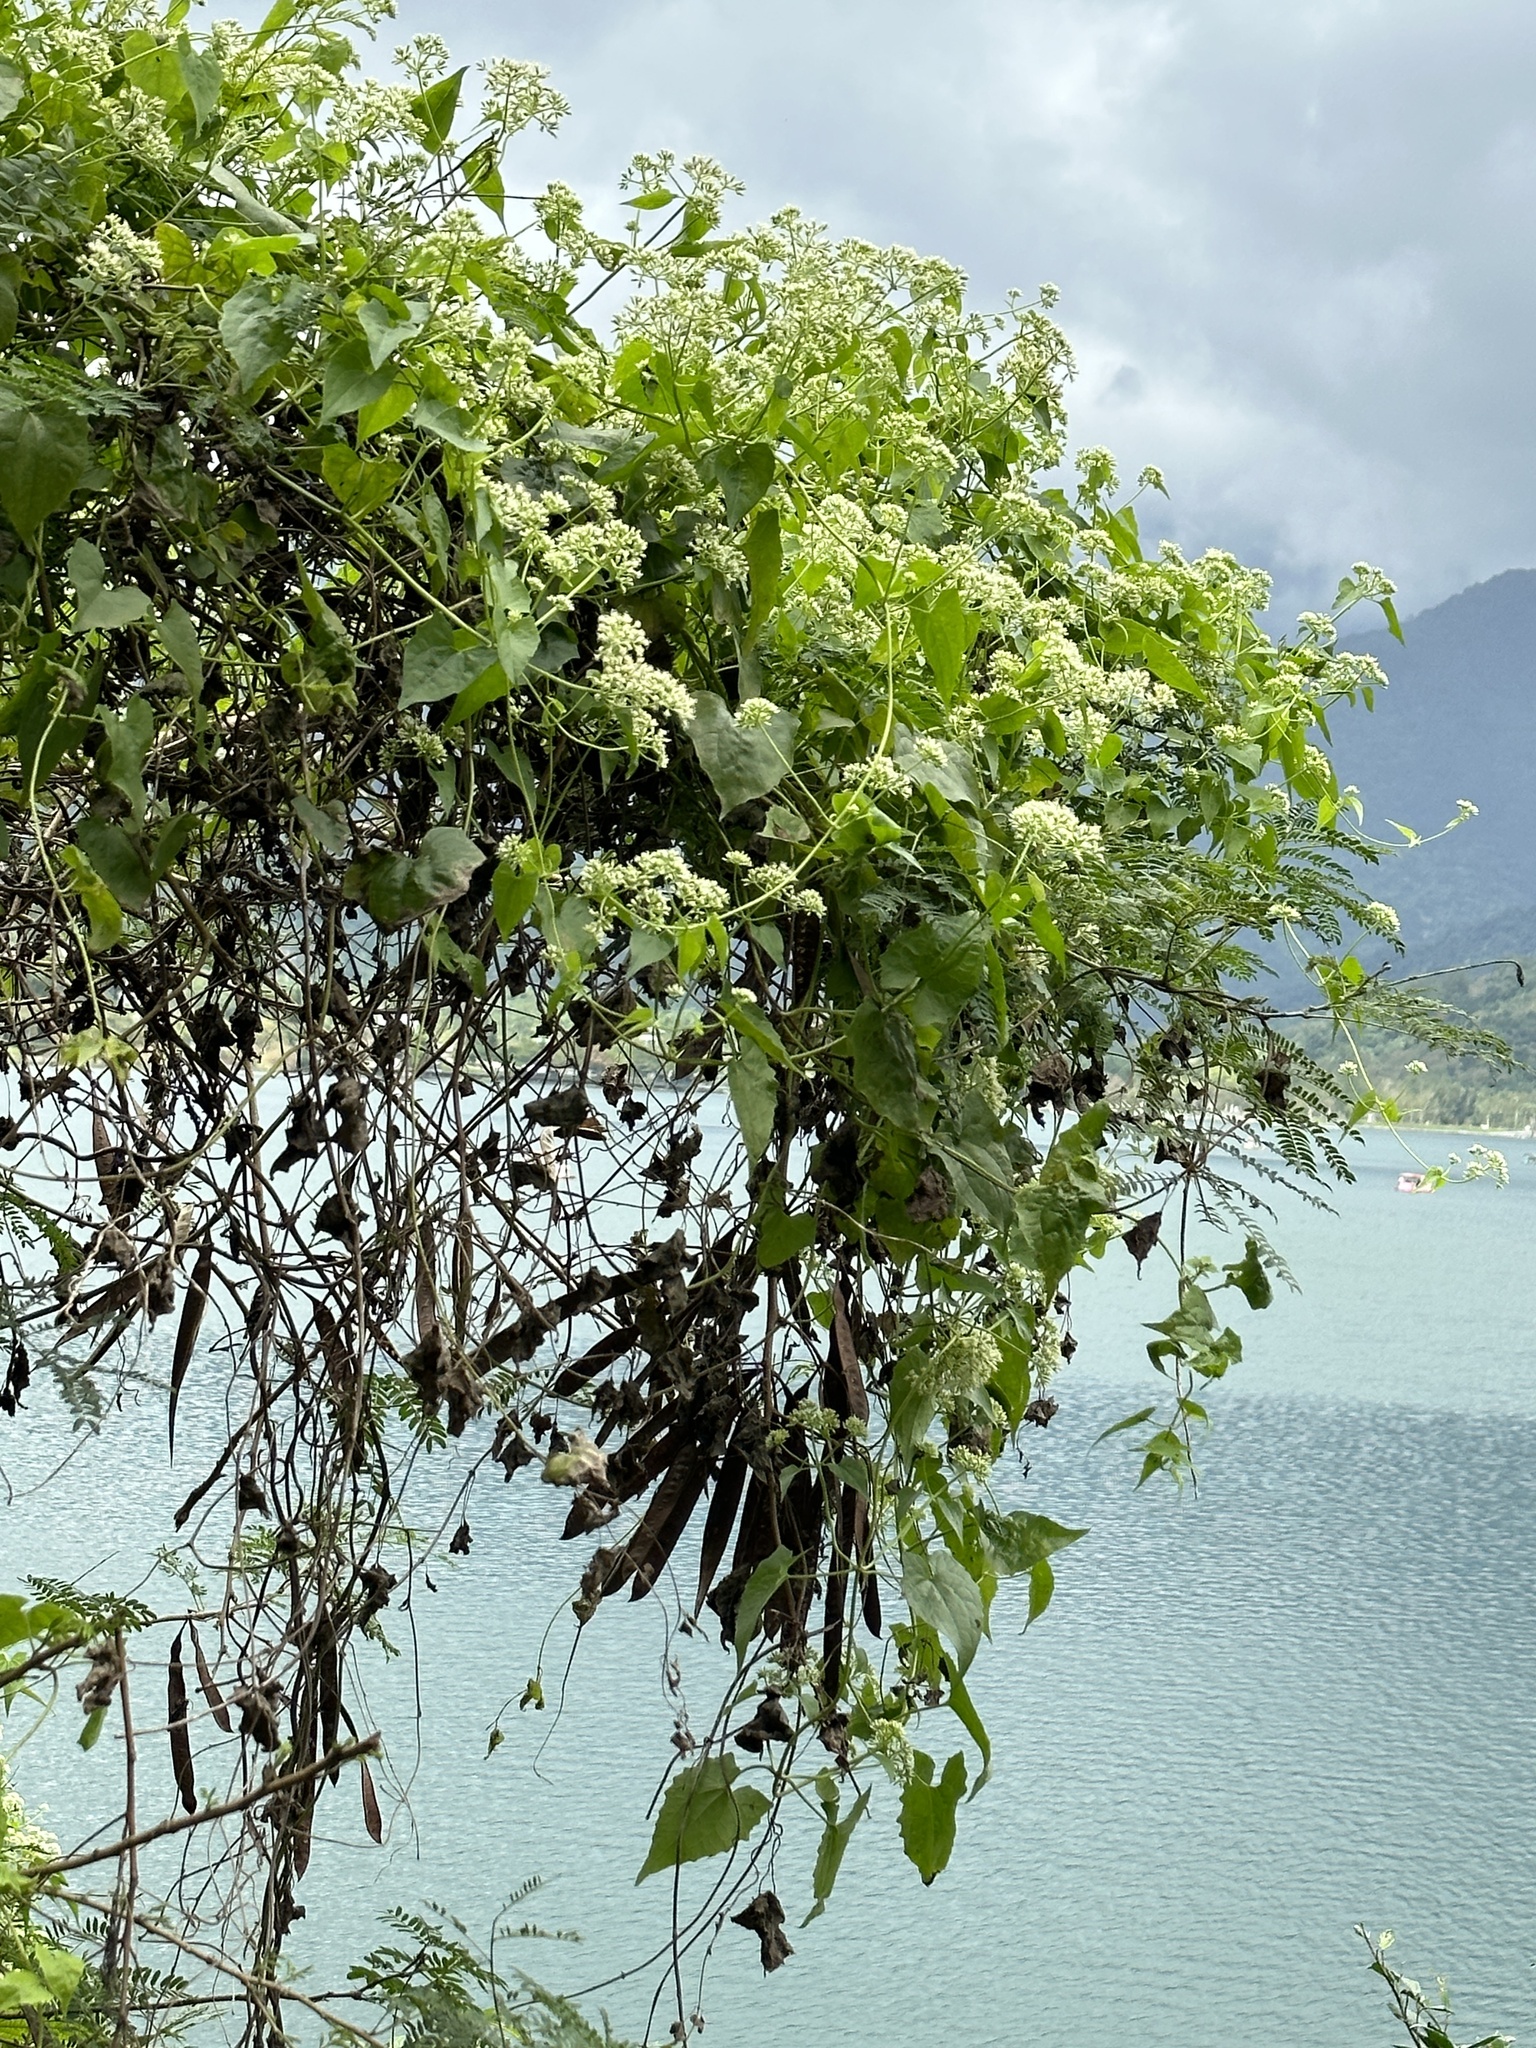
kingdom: Plantae
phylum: Tracheophyta
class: Magnoliopsida
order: Asterales
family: Asteraceae
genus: Mikania
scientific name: Mikania micrantha
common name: Mile-a-minute
